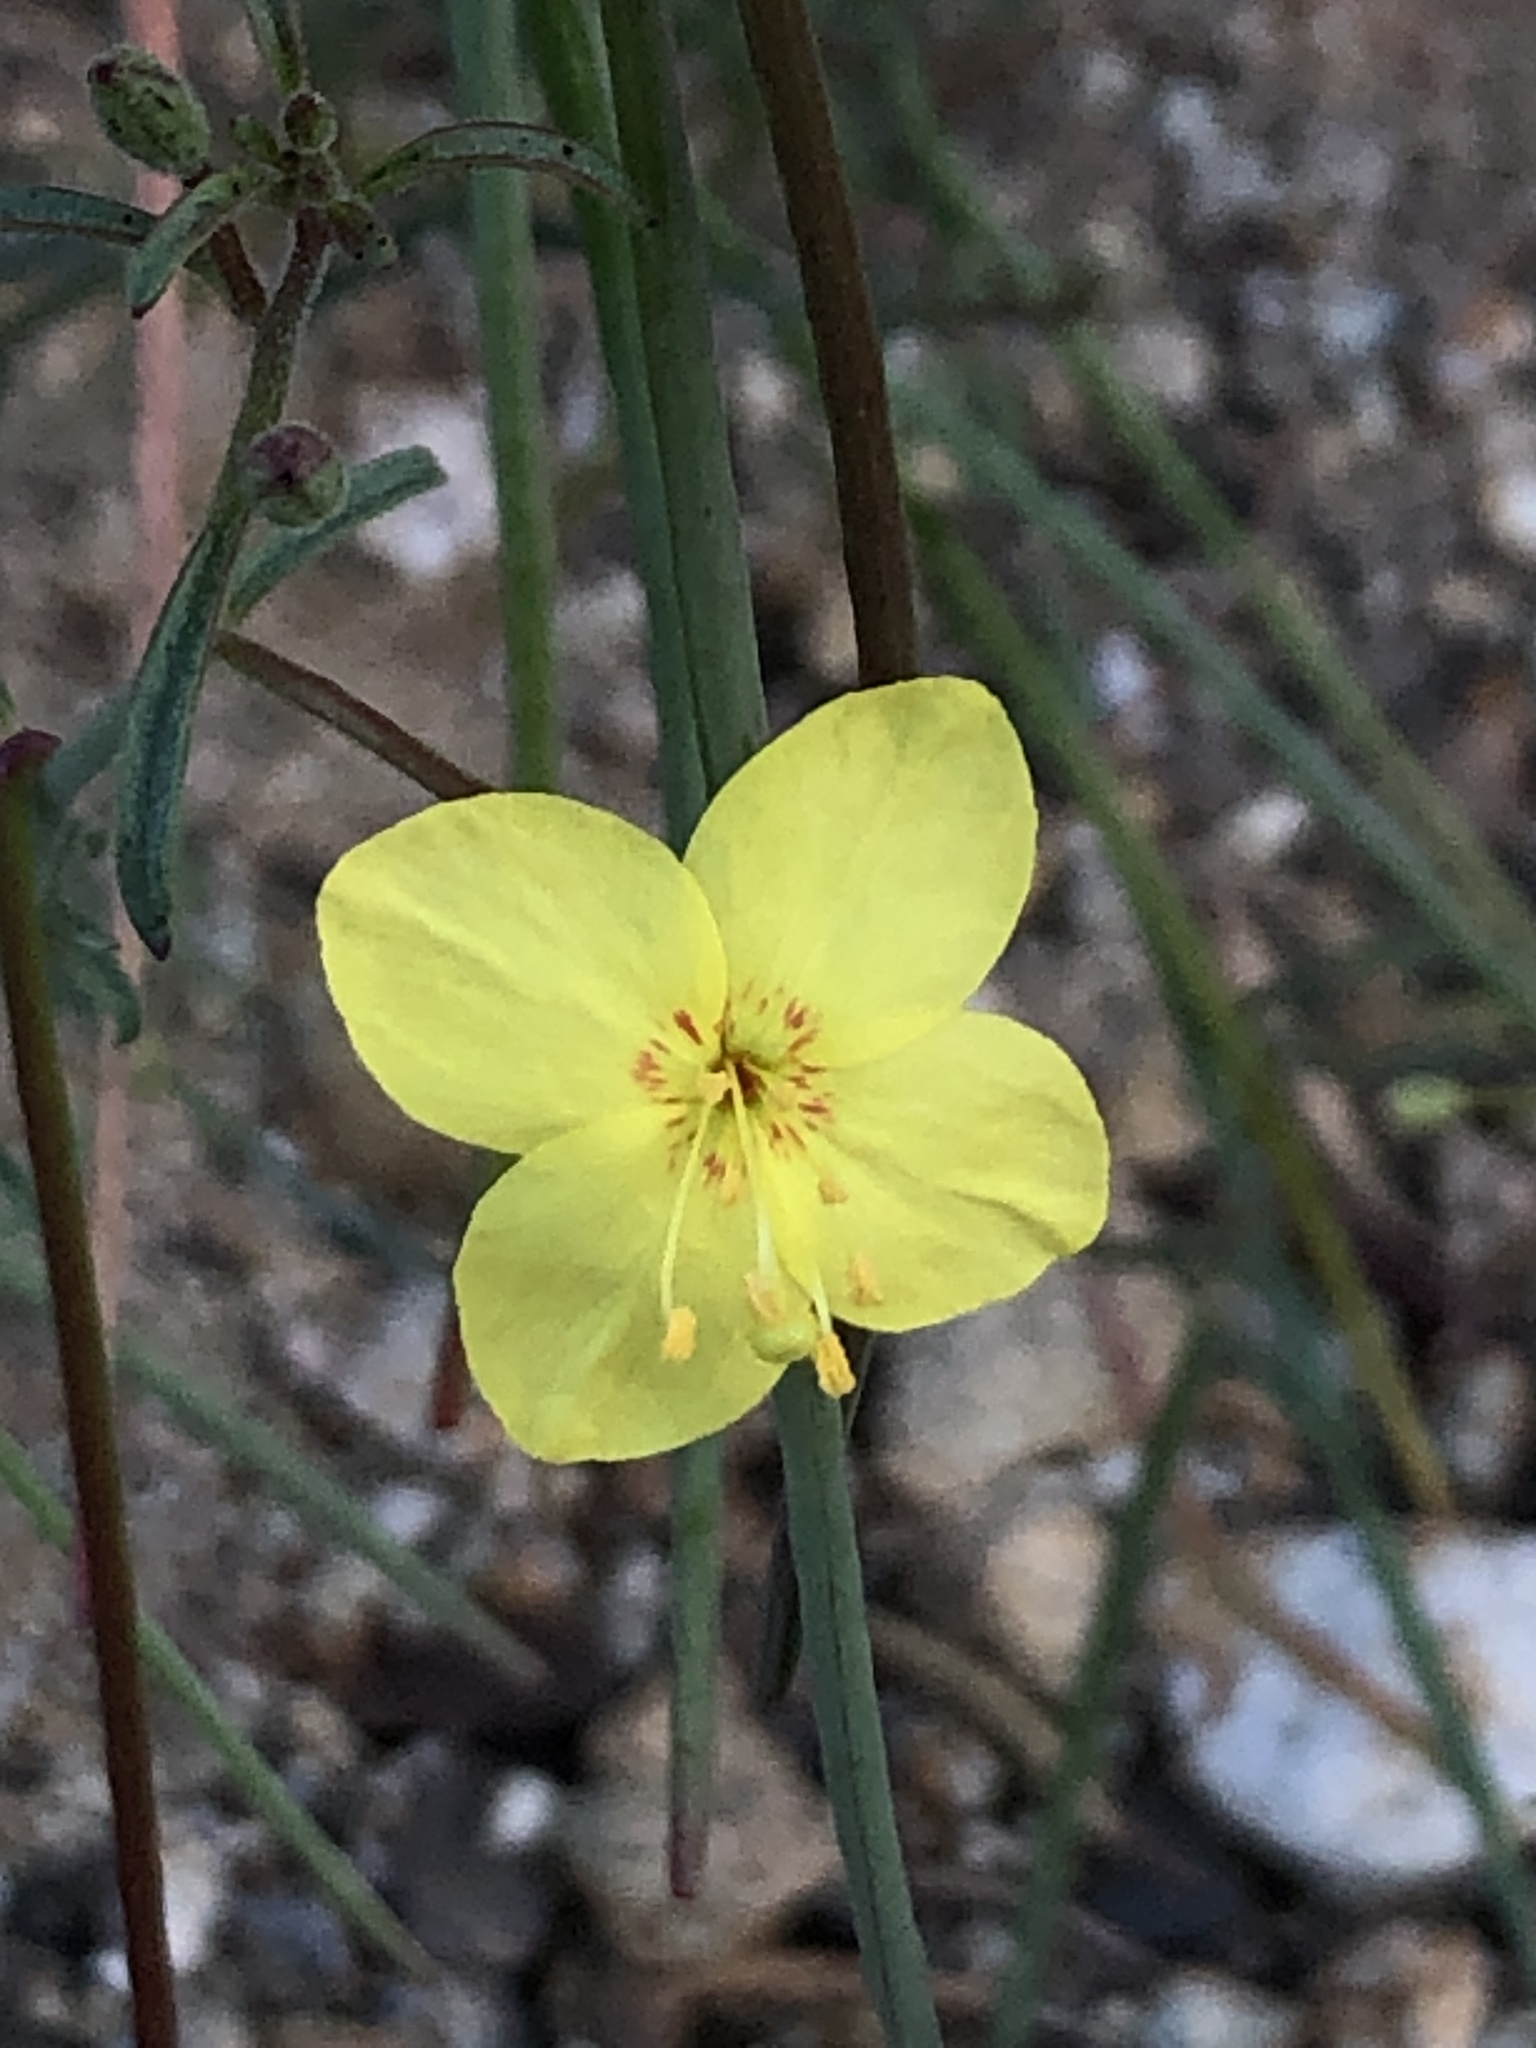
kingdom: Plantae
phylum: Tracheophyta
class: Magnoliopsida
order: Myrtales
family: Onagraceae
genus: Eulobus
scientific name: Eulobus californicus
